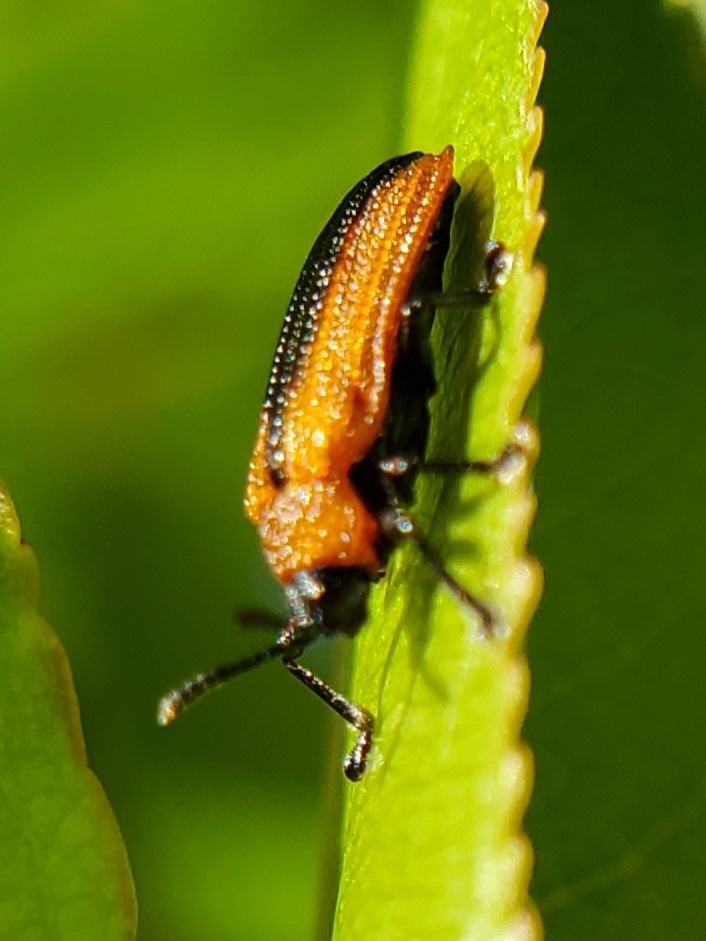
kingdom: Animalia
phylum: Arthropoda
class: Insecta
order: Coleoptera
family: Chrysomelidae
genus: Odontota
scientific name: Odontota dorsalis
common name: Locust leaf-miner beetle
